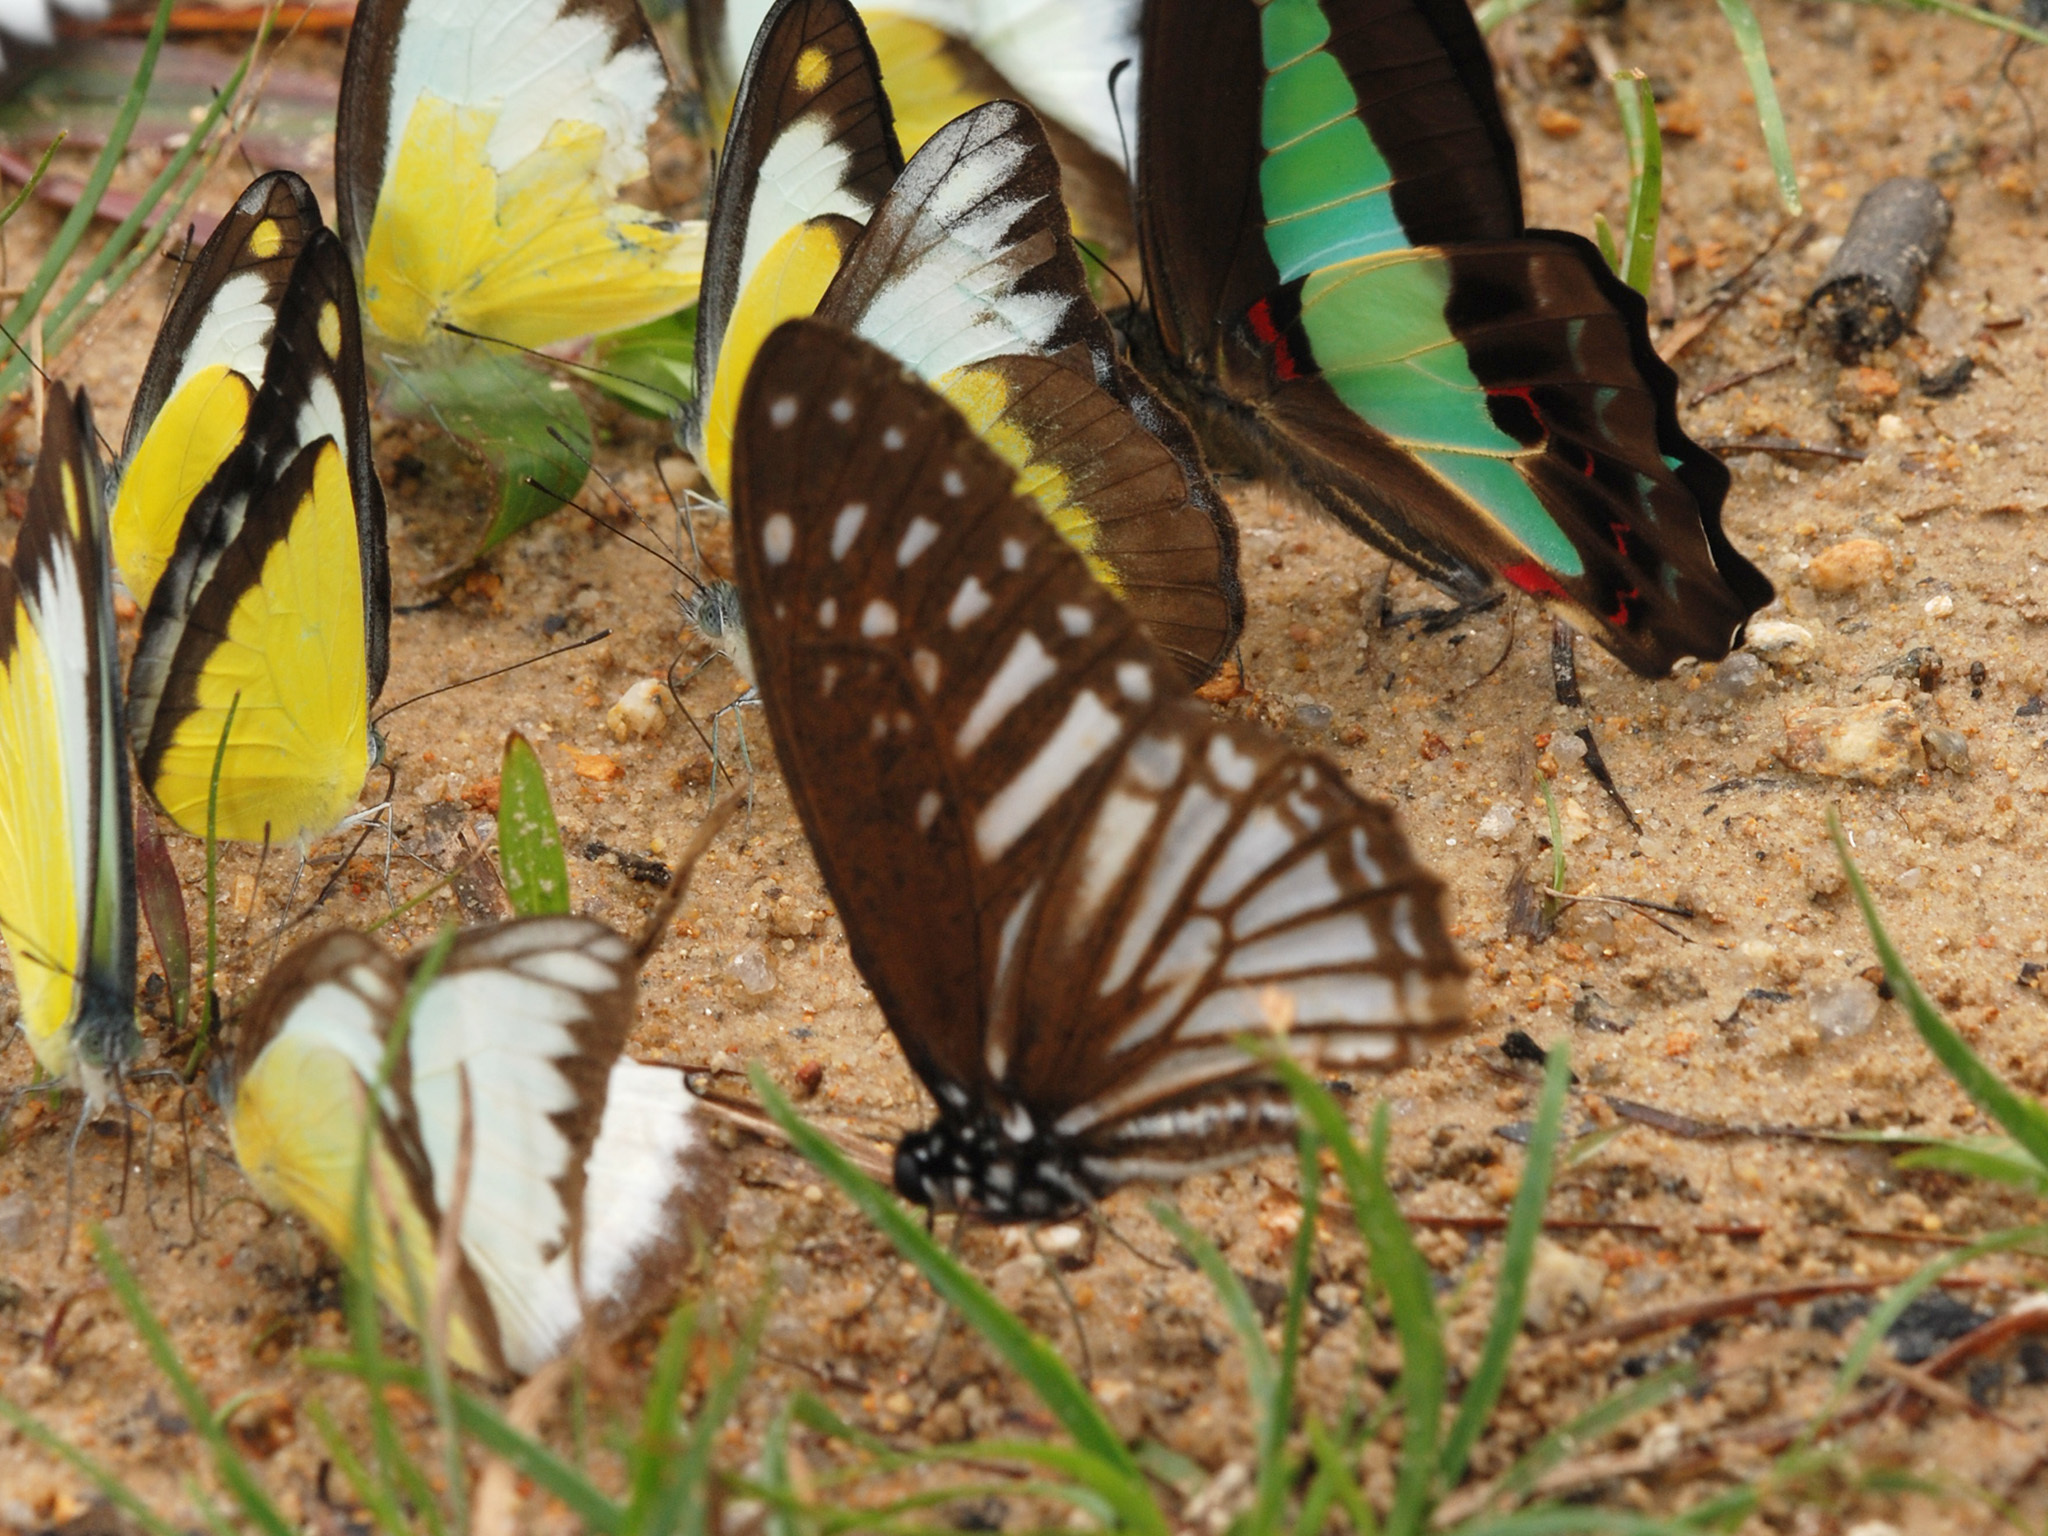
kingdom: Animalia
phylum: Arthropoda
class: Insecta
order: Lepidoptera
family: Papilionidae
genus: Graphium
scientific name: Graphium ramaceus
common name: Pendlebury's zebra
